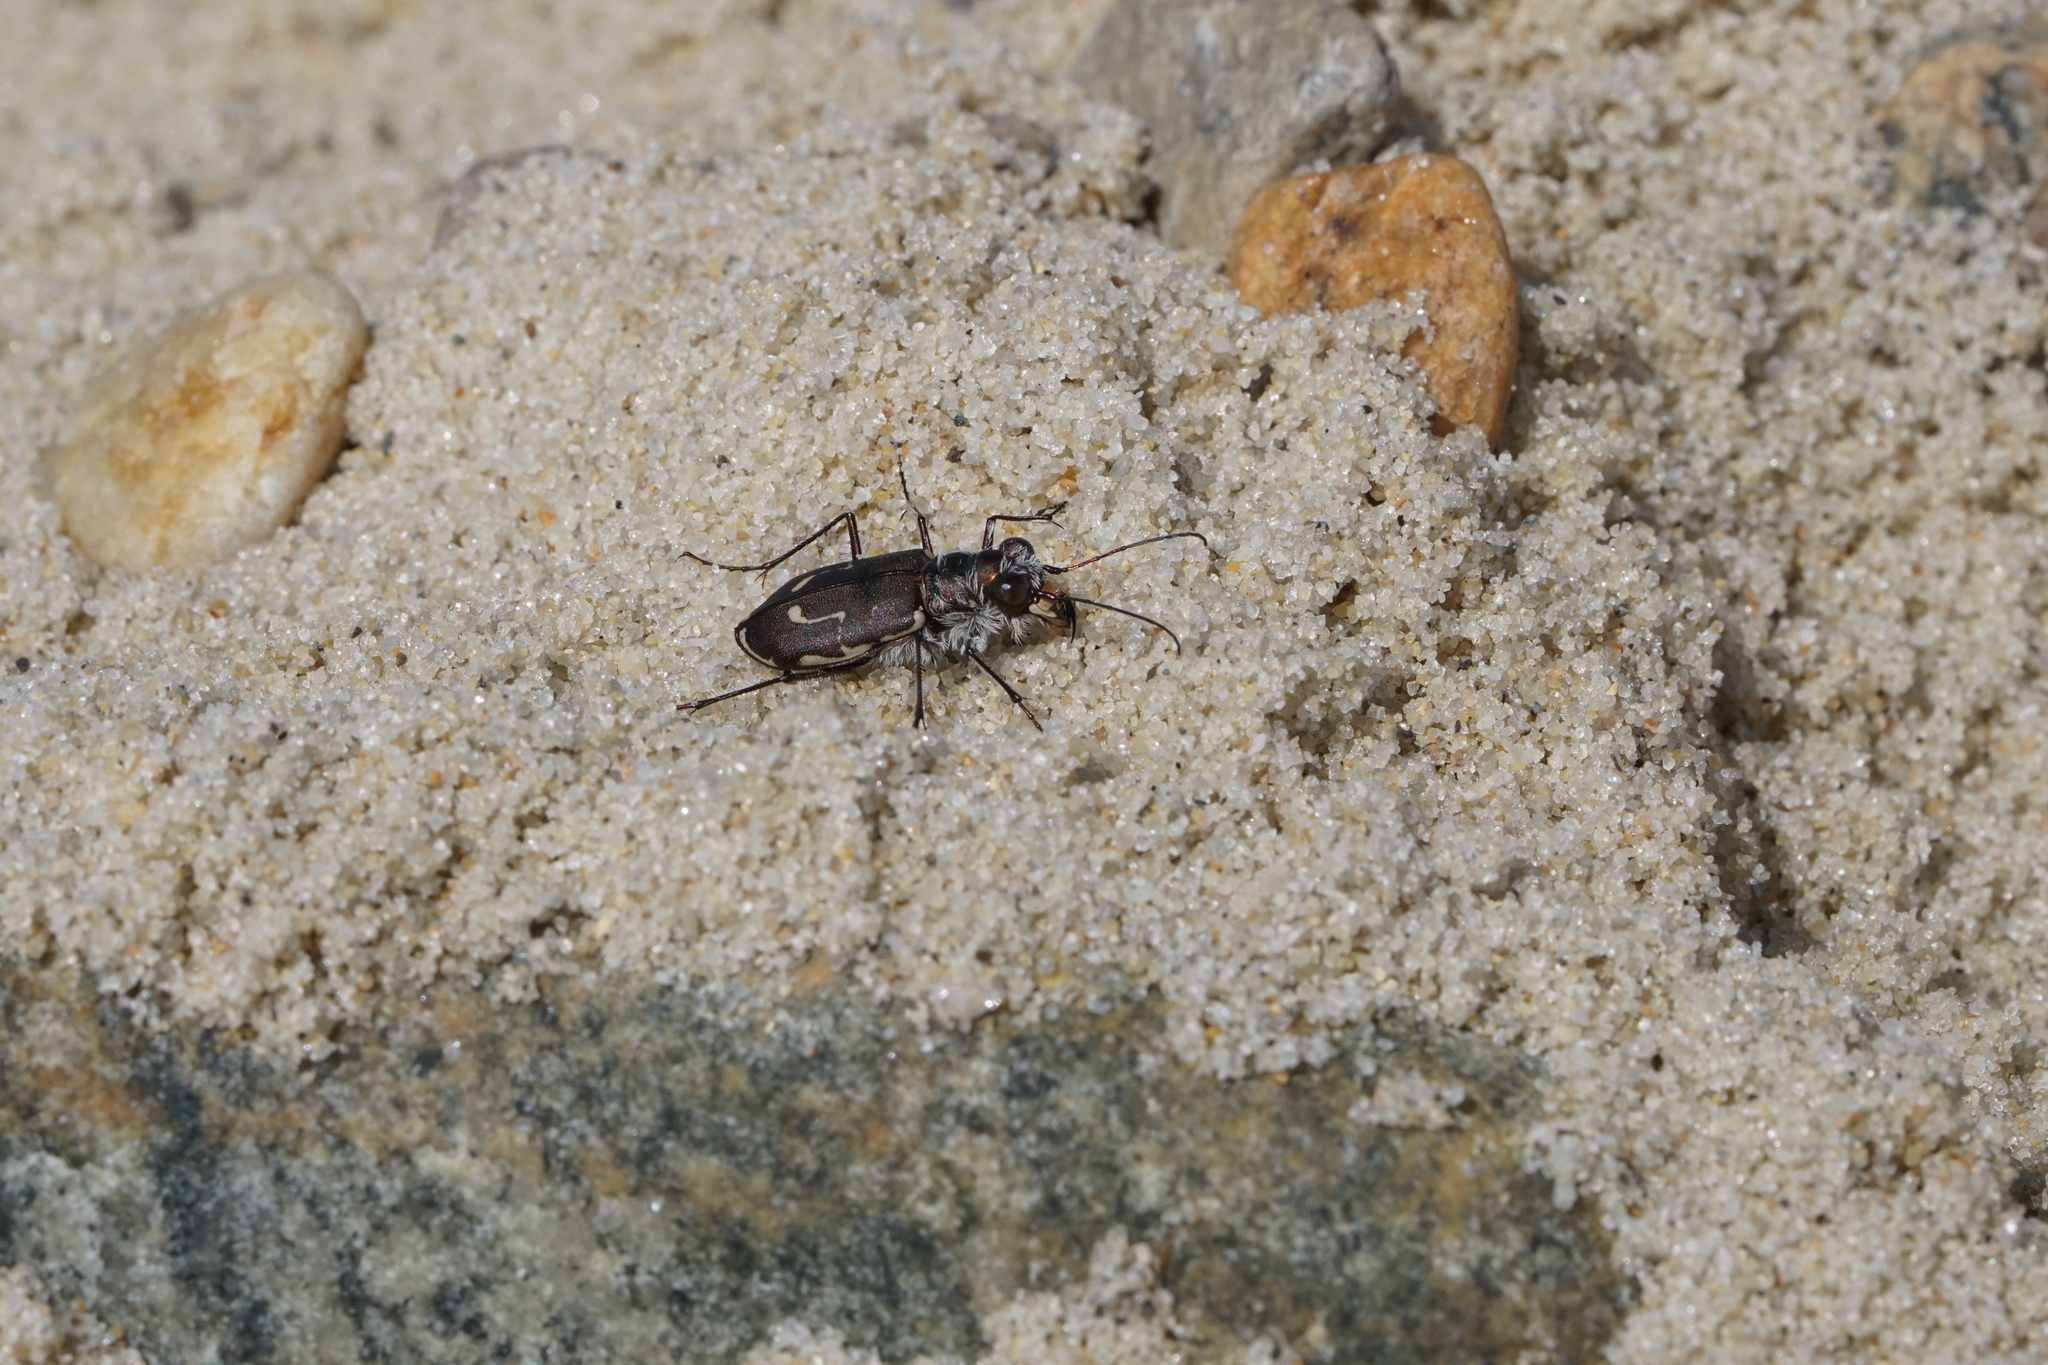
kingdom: Animalia
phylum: Arthropoda
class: Insecta
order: Coleoptera
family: Carabidae
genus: Cicindela
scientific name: Cicindela hirticollis
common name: Hairy-necked tiger beetle
